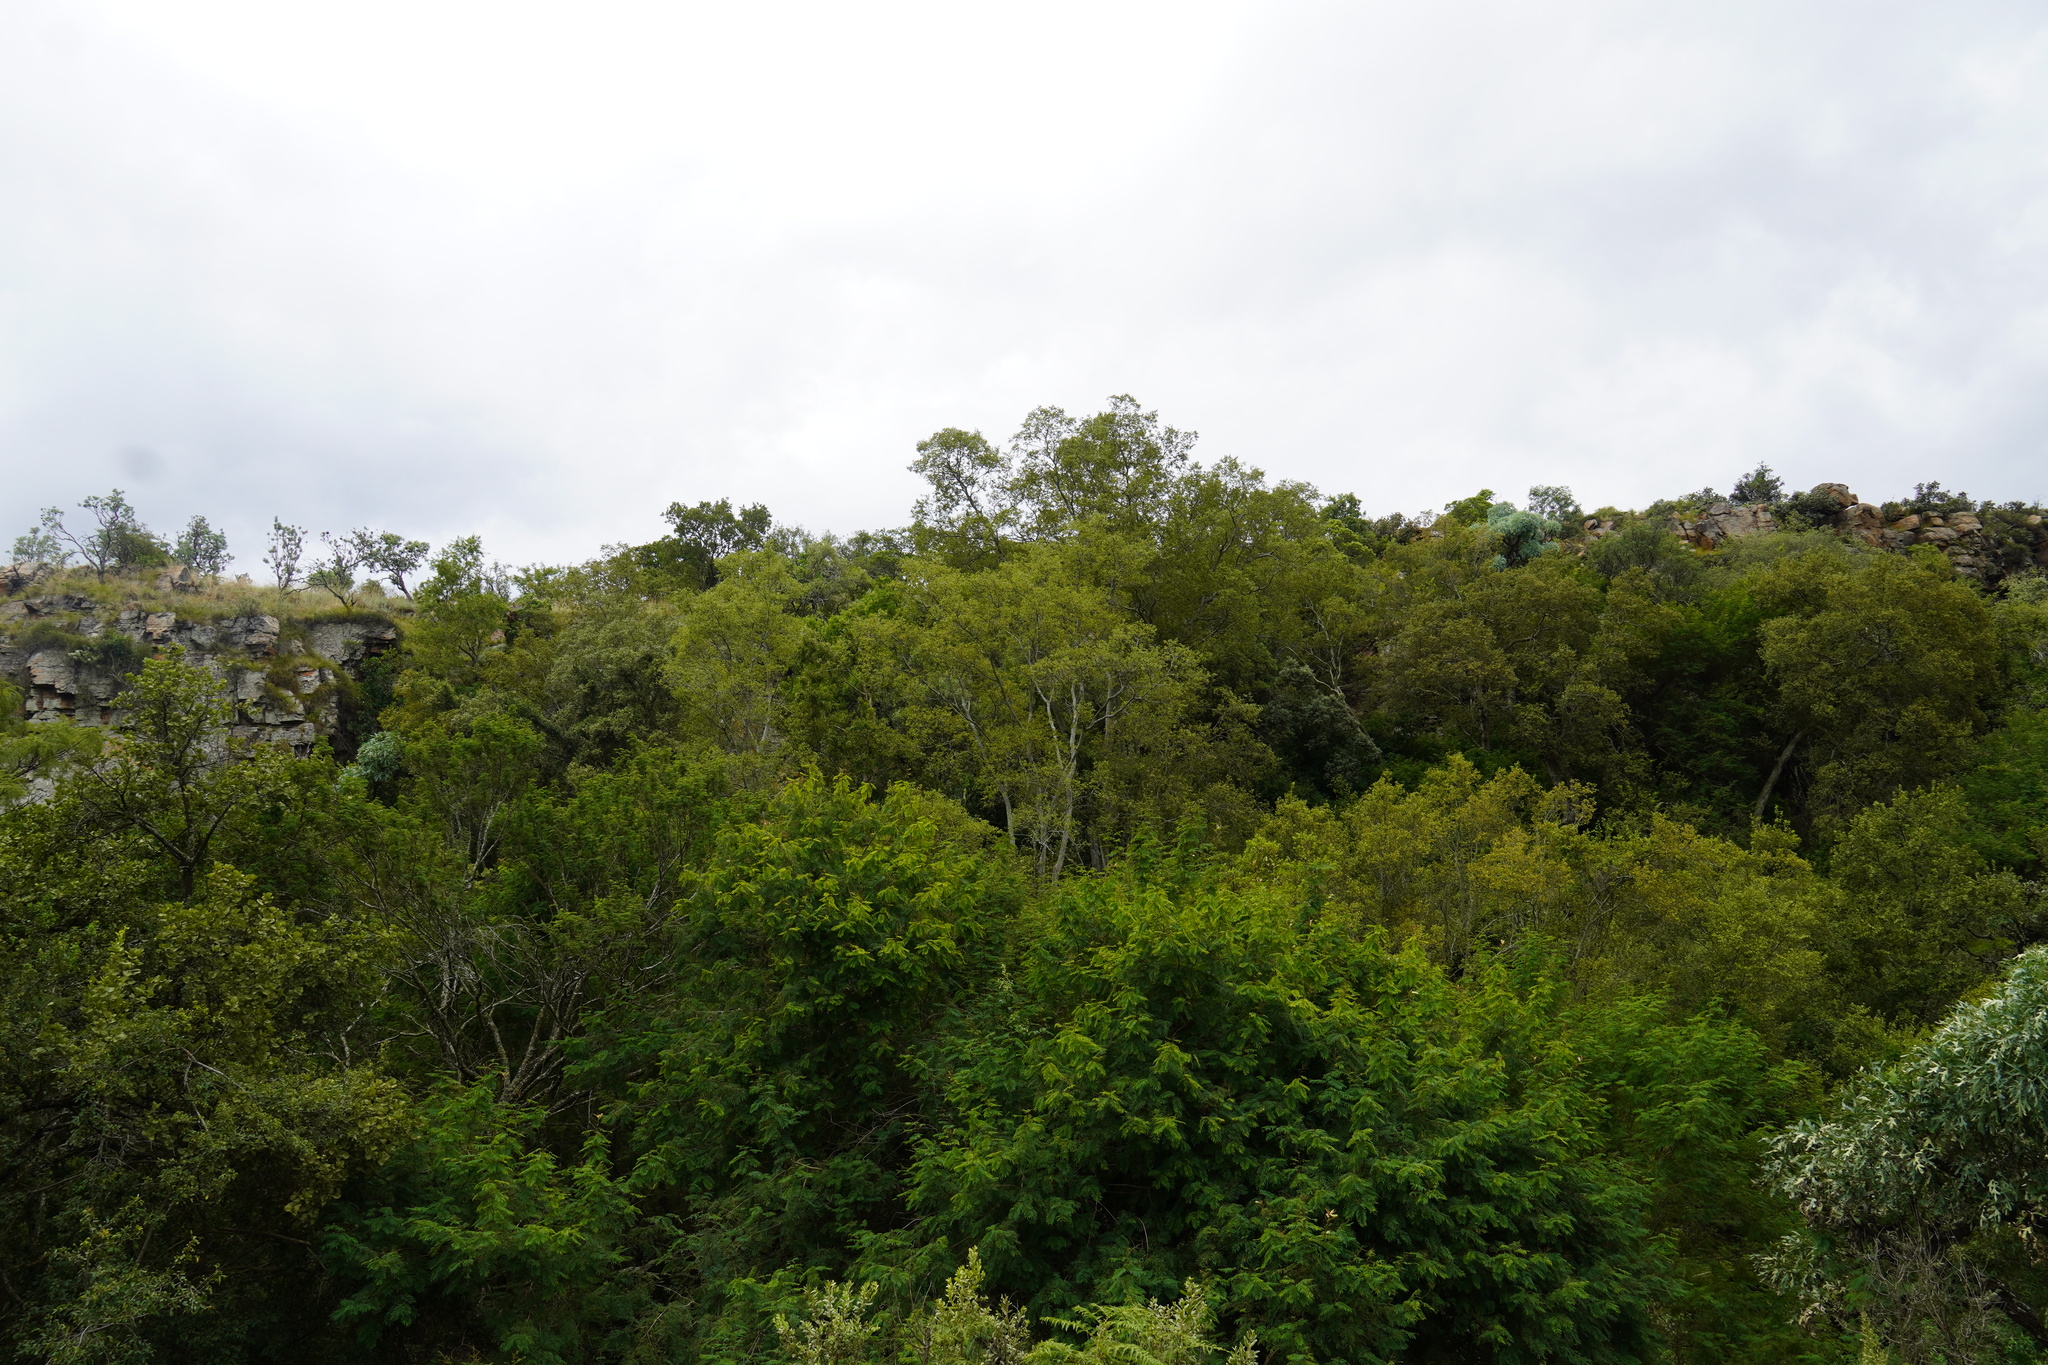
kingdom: Plantae
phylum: Tracheophyta
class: Magnoliopsida
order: Rosales
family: Cannabaceae
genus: Celtis
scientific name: Celtis africana
